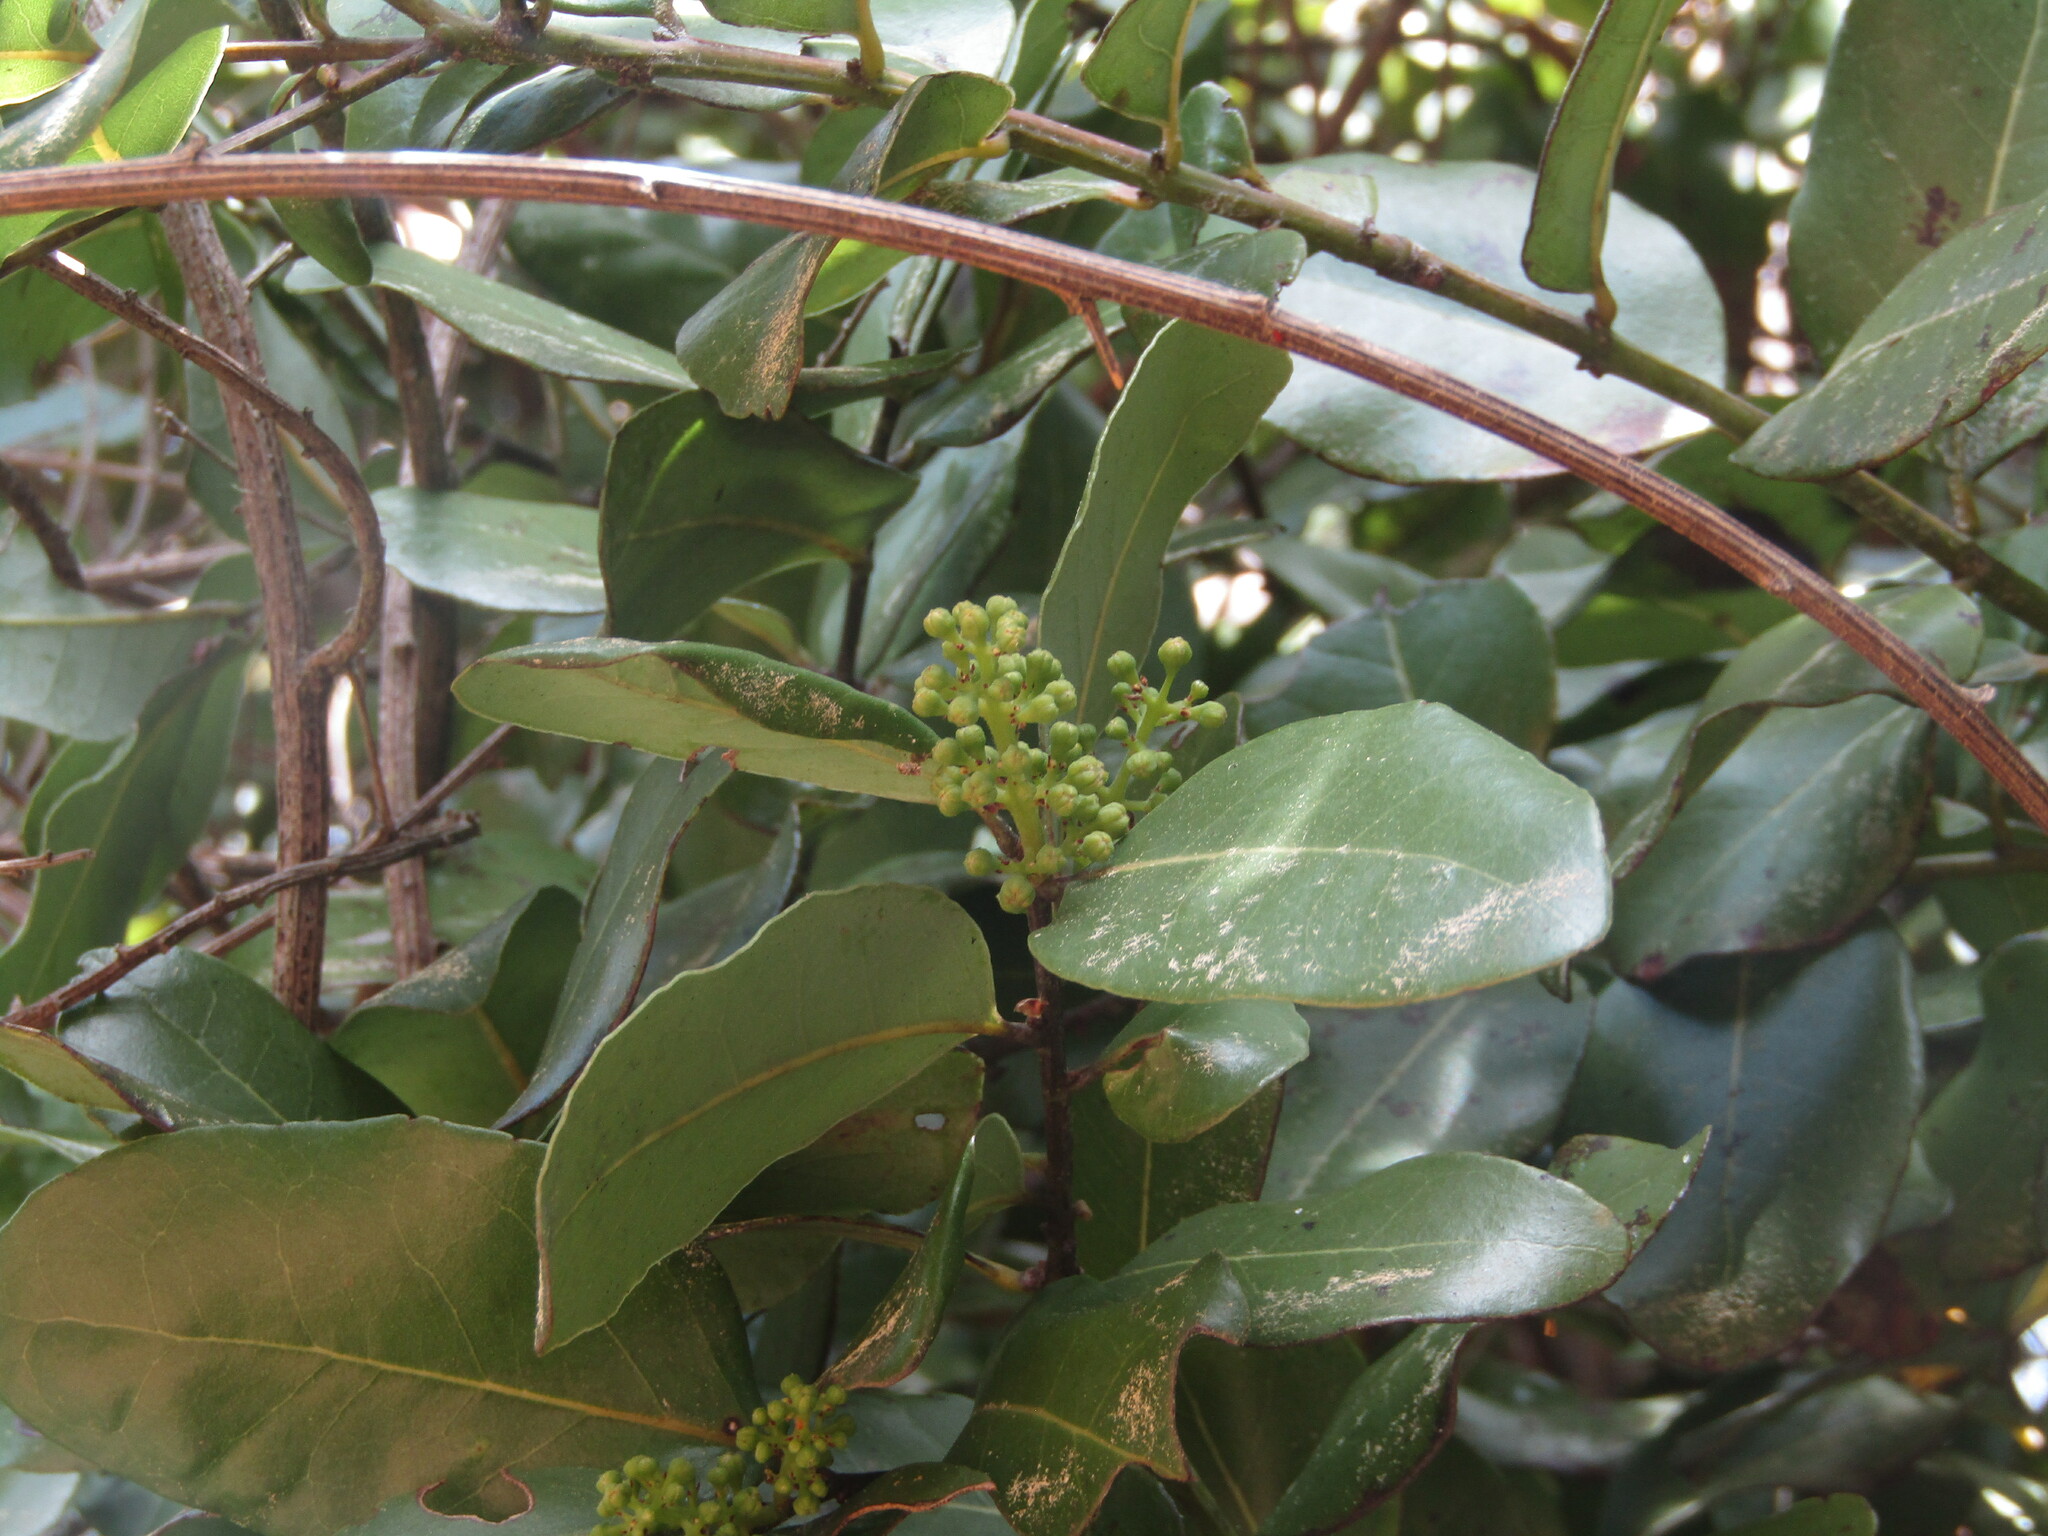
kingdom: Plantae
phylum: Tracheophyta
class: Magnoliopsida
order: Laurales
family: Lauraceae
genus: Cryptocarya
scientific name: Cryptocarya alba
